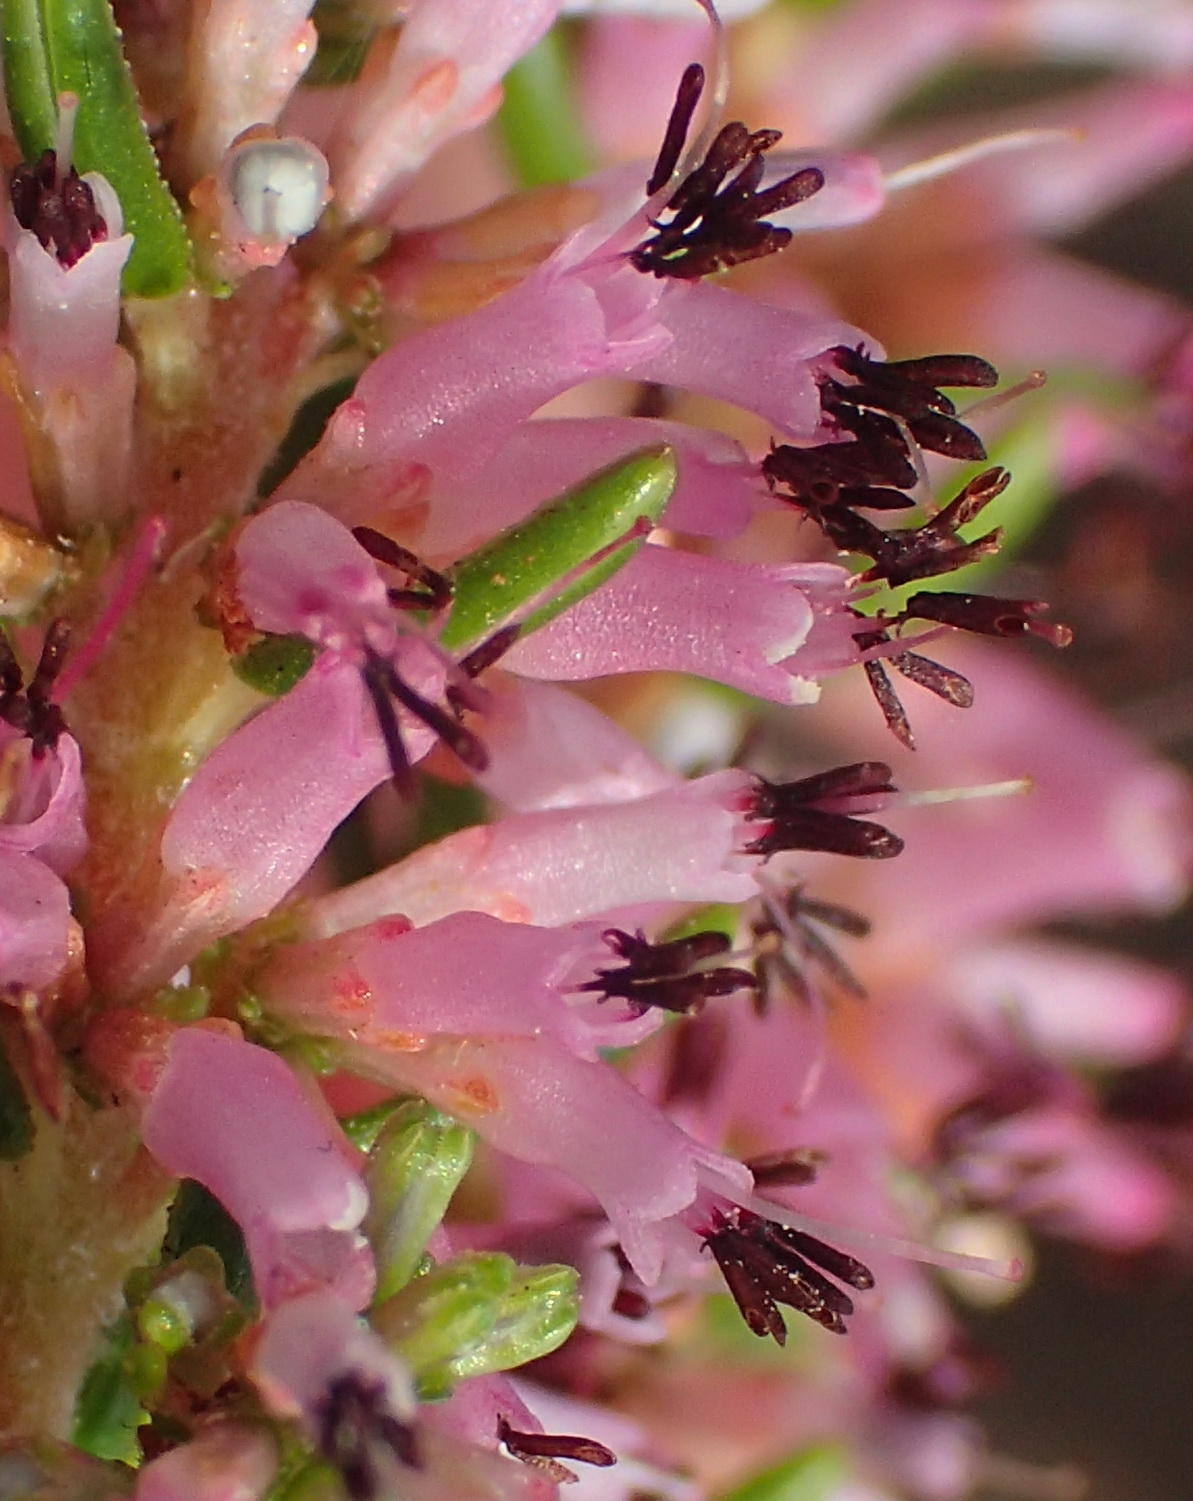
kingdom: Plantae
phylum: Tracheophyta
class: Magnoliopsida
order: Ericales
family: Ericaceae
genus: Erica
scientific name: Erica uberiflora
